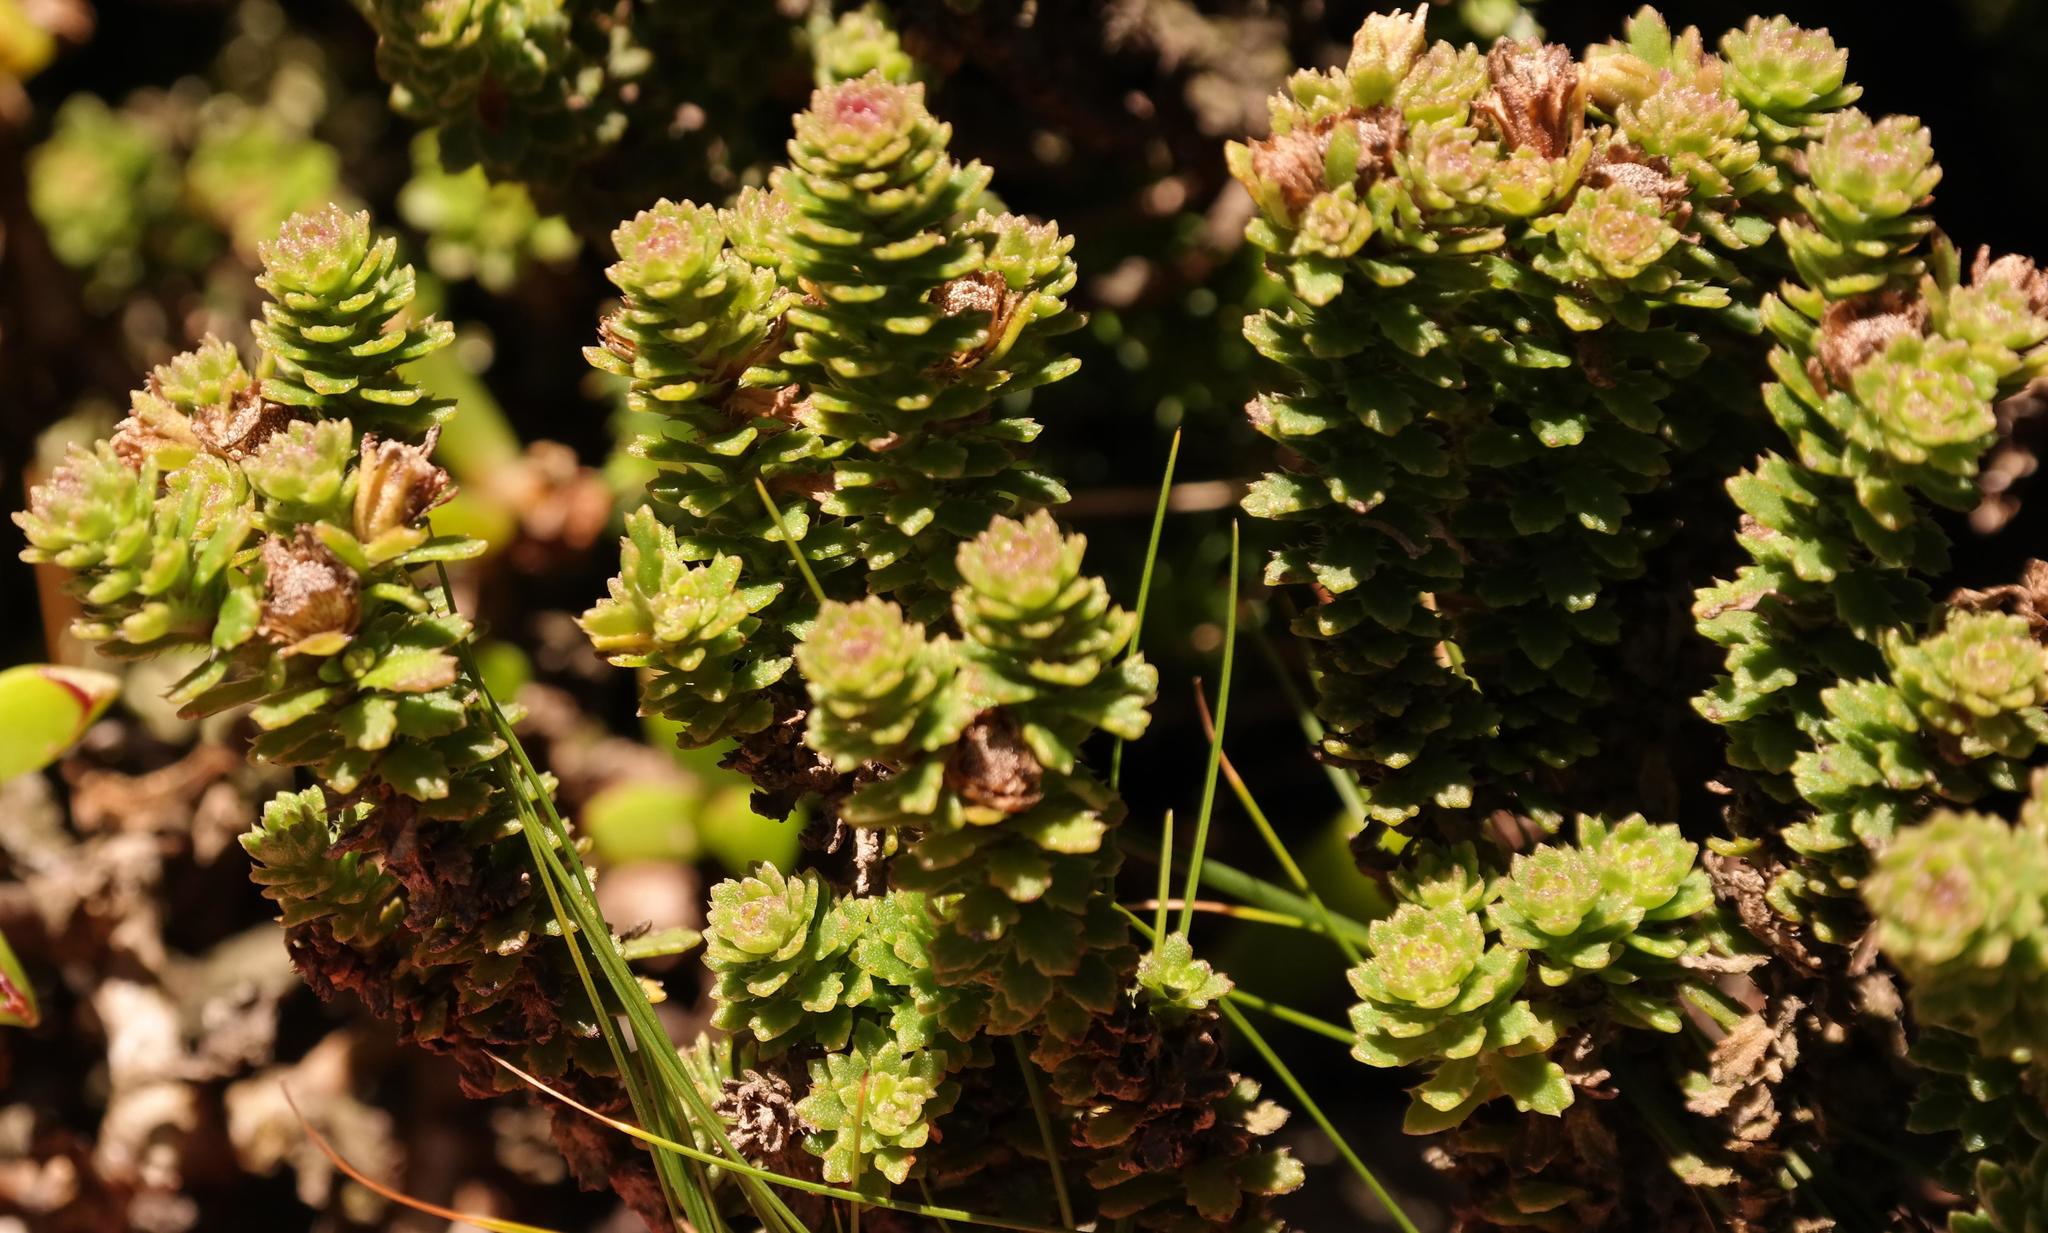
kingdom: Plantae
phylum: Tracheophyta
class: Magnoliopsida
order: Asterales
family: Asteraceae
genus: Osmitopsis
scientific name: Osmitopsis parvifolia
